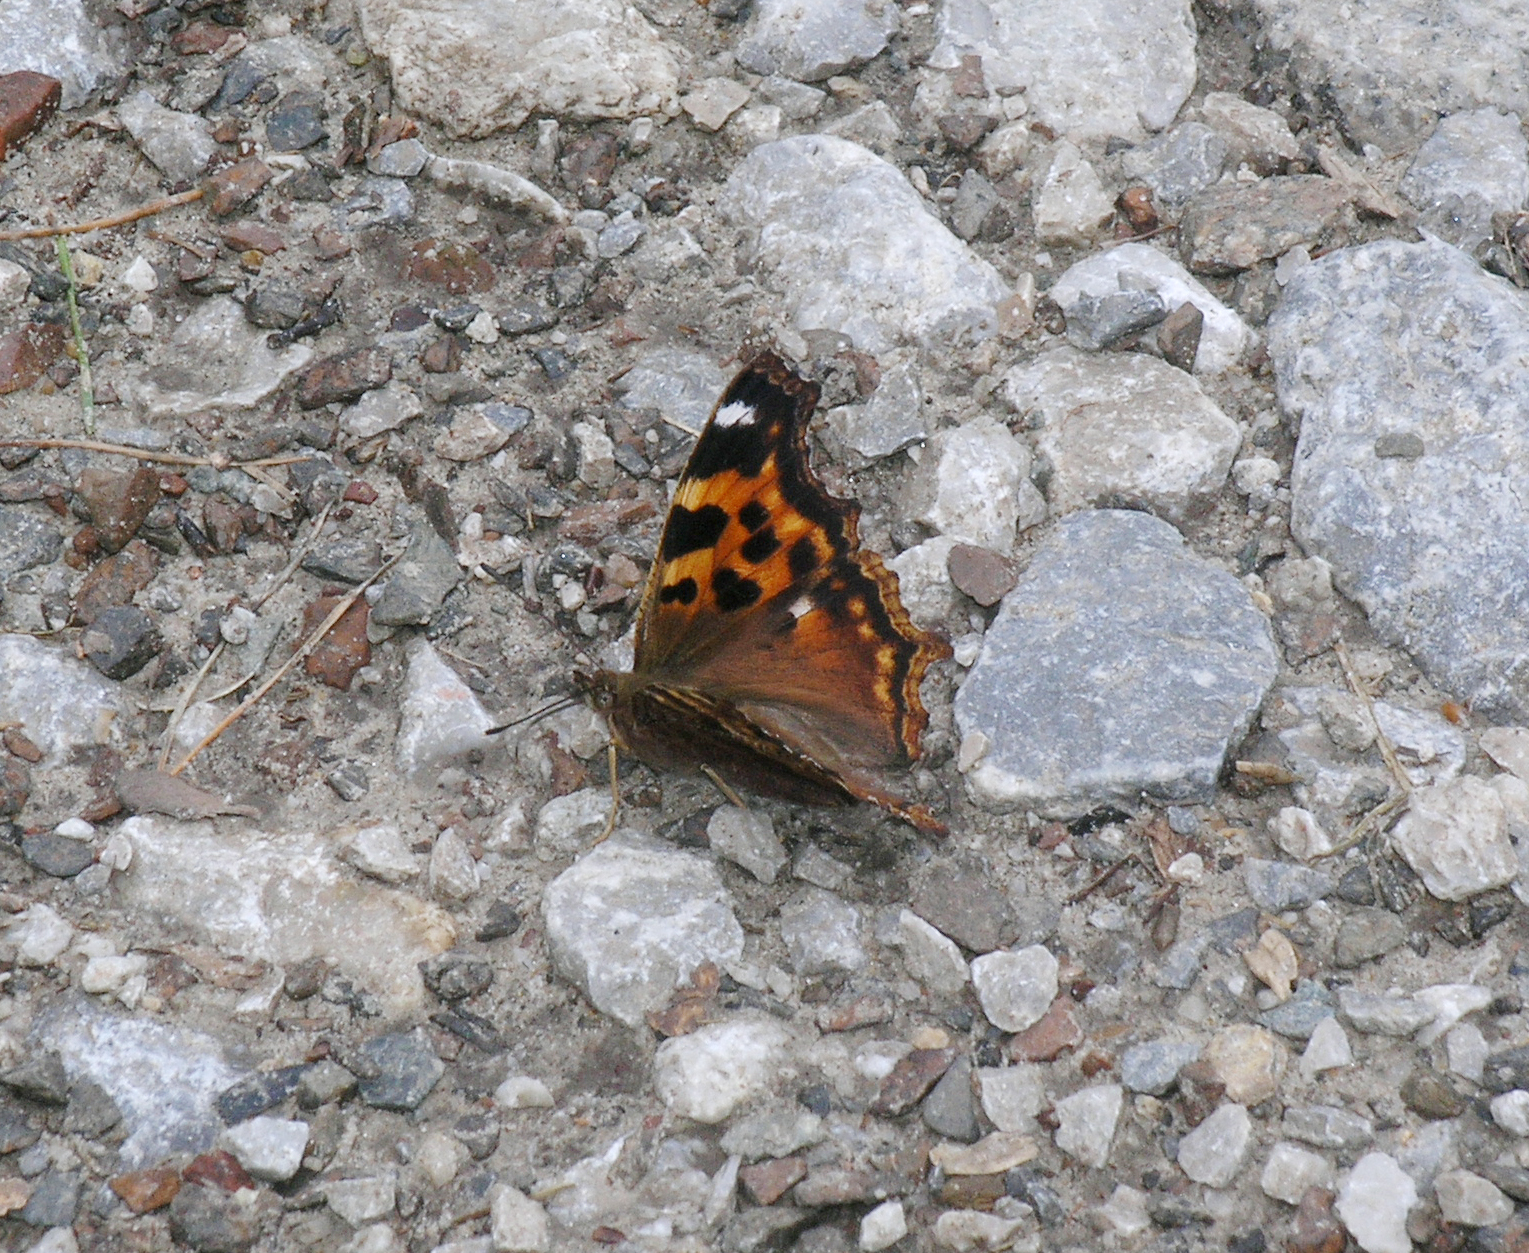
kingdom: Animalia
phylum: Arthropoda
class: Insecta
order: Lepidoptera
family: Nymphalidae
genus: Polygonia
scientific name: Polygonia vaualbum
